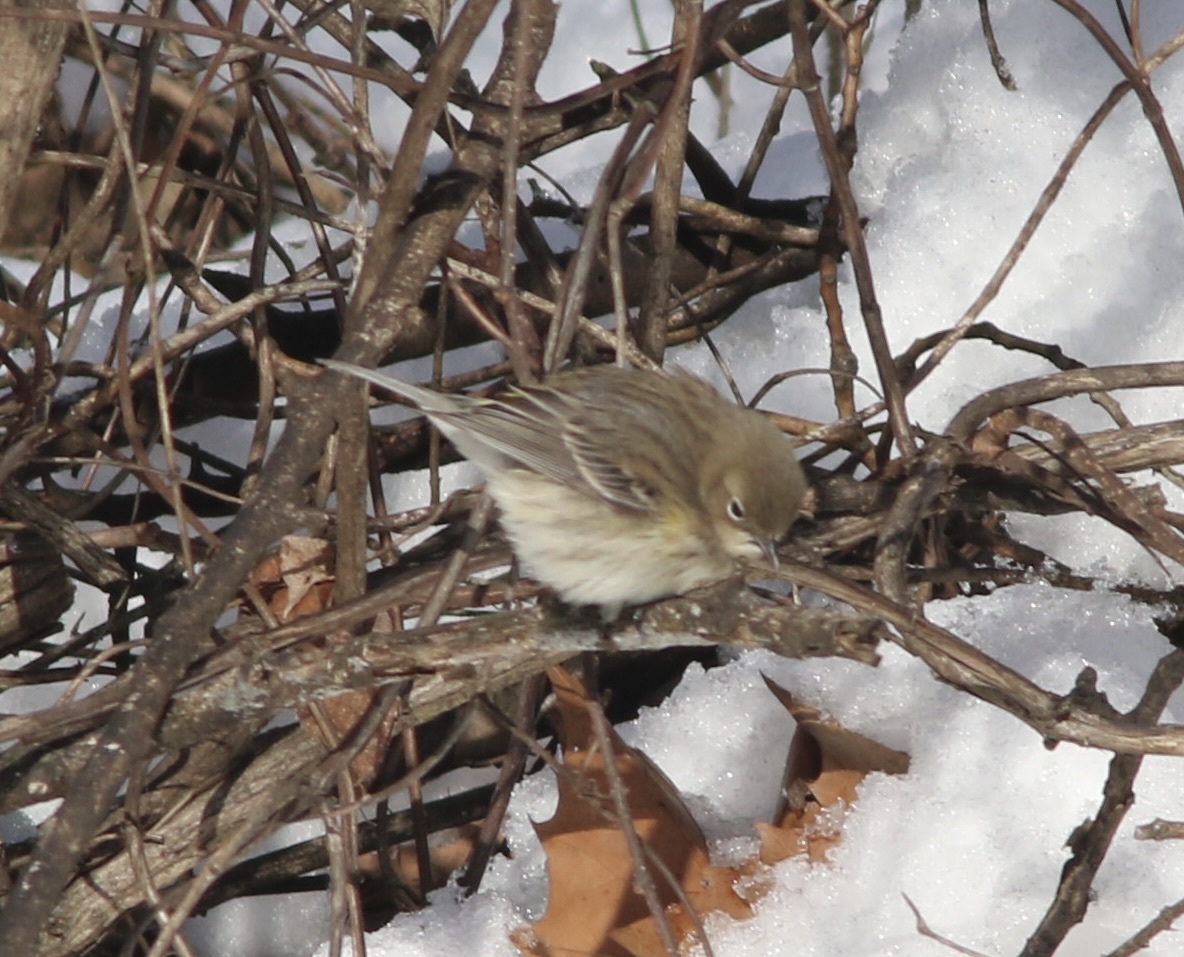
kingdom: Animalia
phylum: Chordata
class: Aves
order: Passeriformes
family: Parulidae
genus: Setophaga
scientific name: Setophaga coronata
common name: Myrtle warbler
